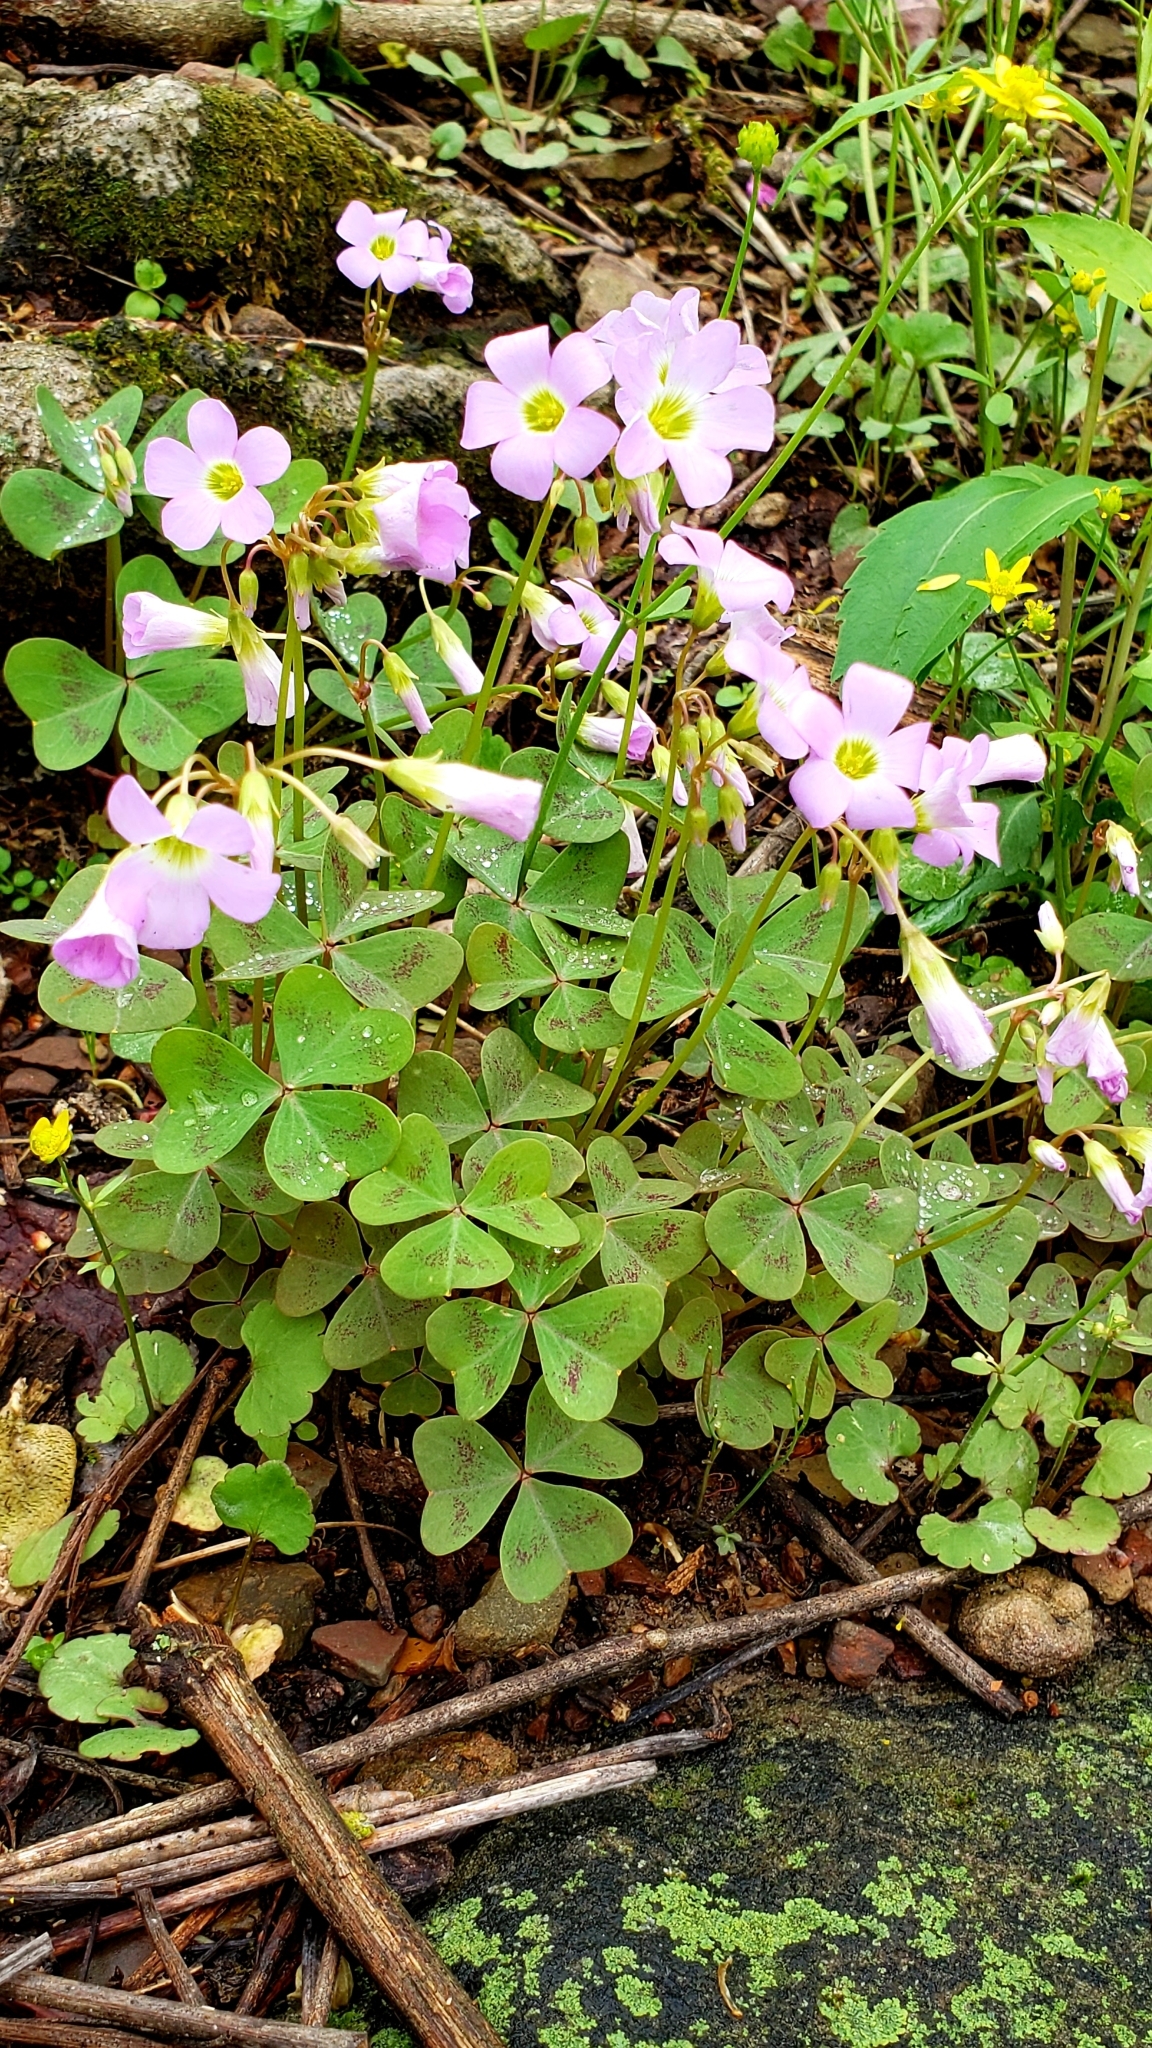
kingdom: Plantae
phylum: Tracheophyta
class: Magnoliopsida
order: Oxalidales
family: Oxalidaceae
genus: Oxalis
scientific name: Oxalis violacea
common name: Violet wood-sorrel
